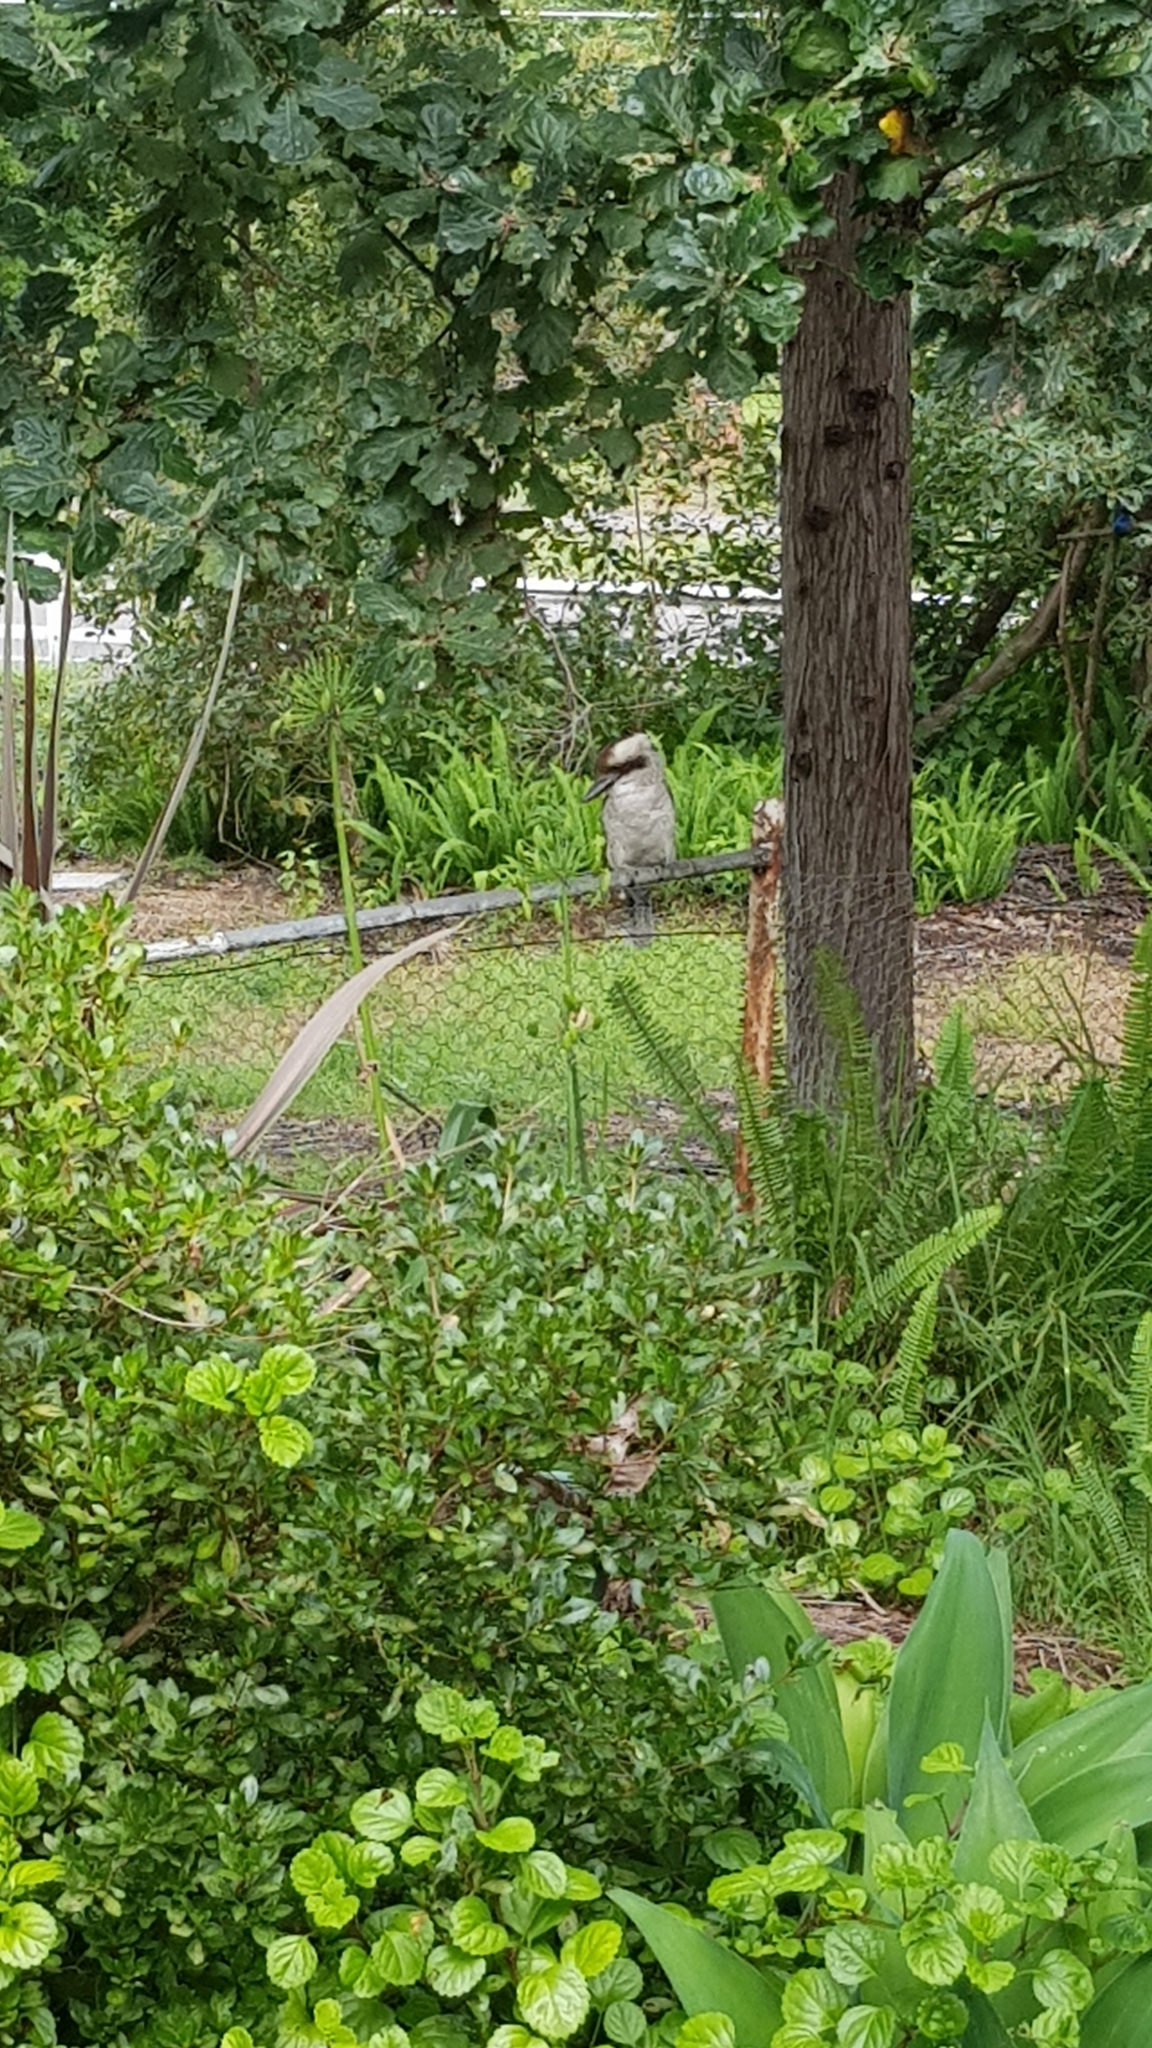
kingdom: Animalia
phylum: Chordata
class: Aves
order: Coraciiformes
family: Alcedinidae
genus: Dacelo
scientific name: Dacelo novaeguineae
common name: Laughing kookaburra
